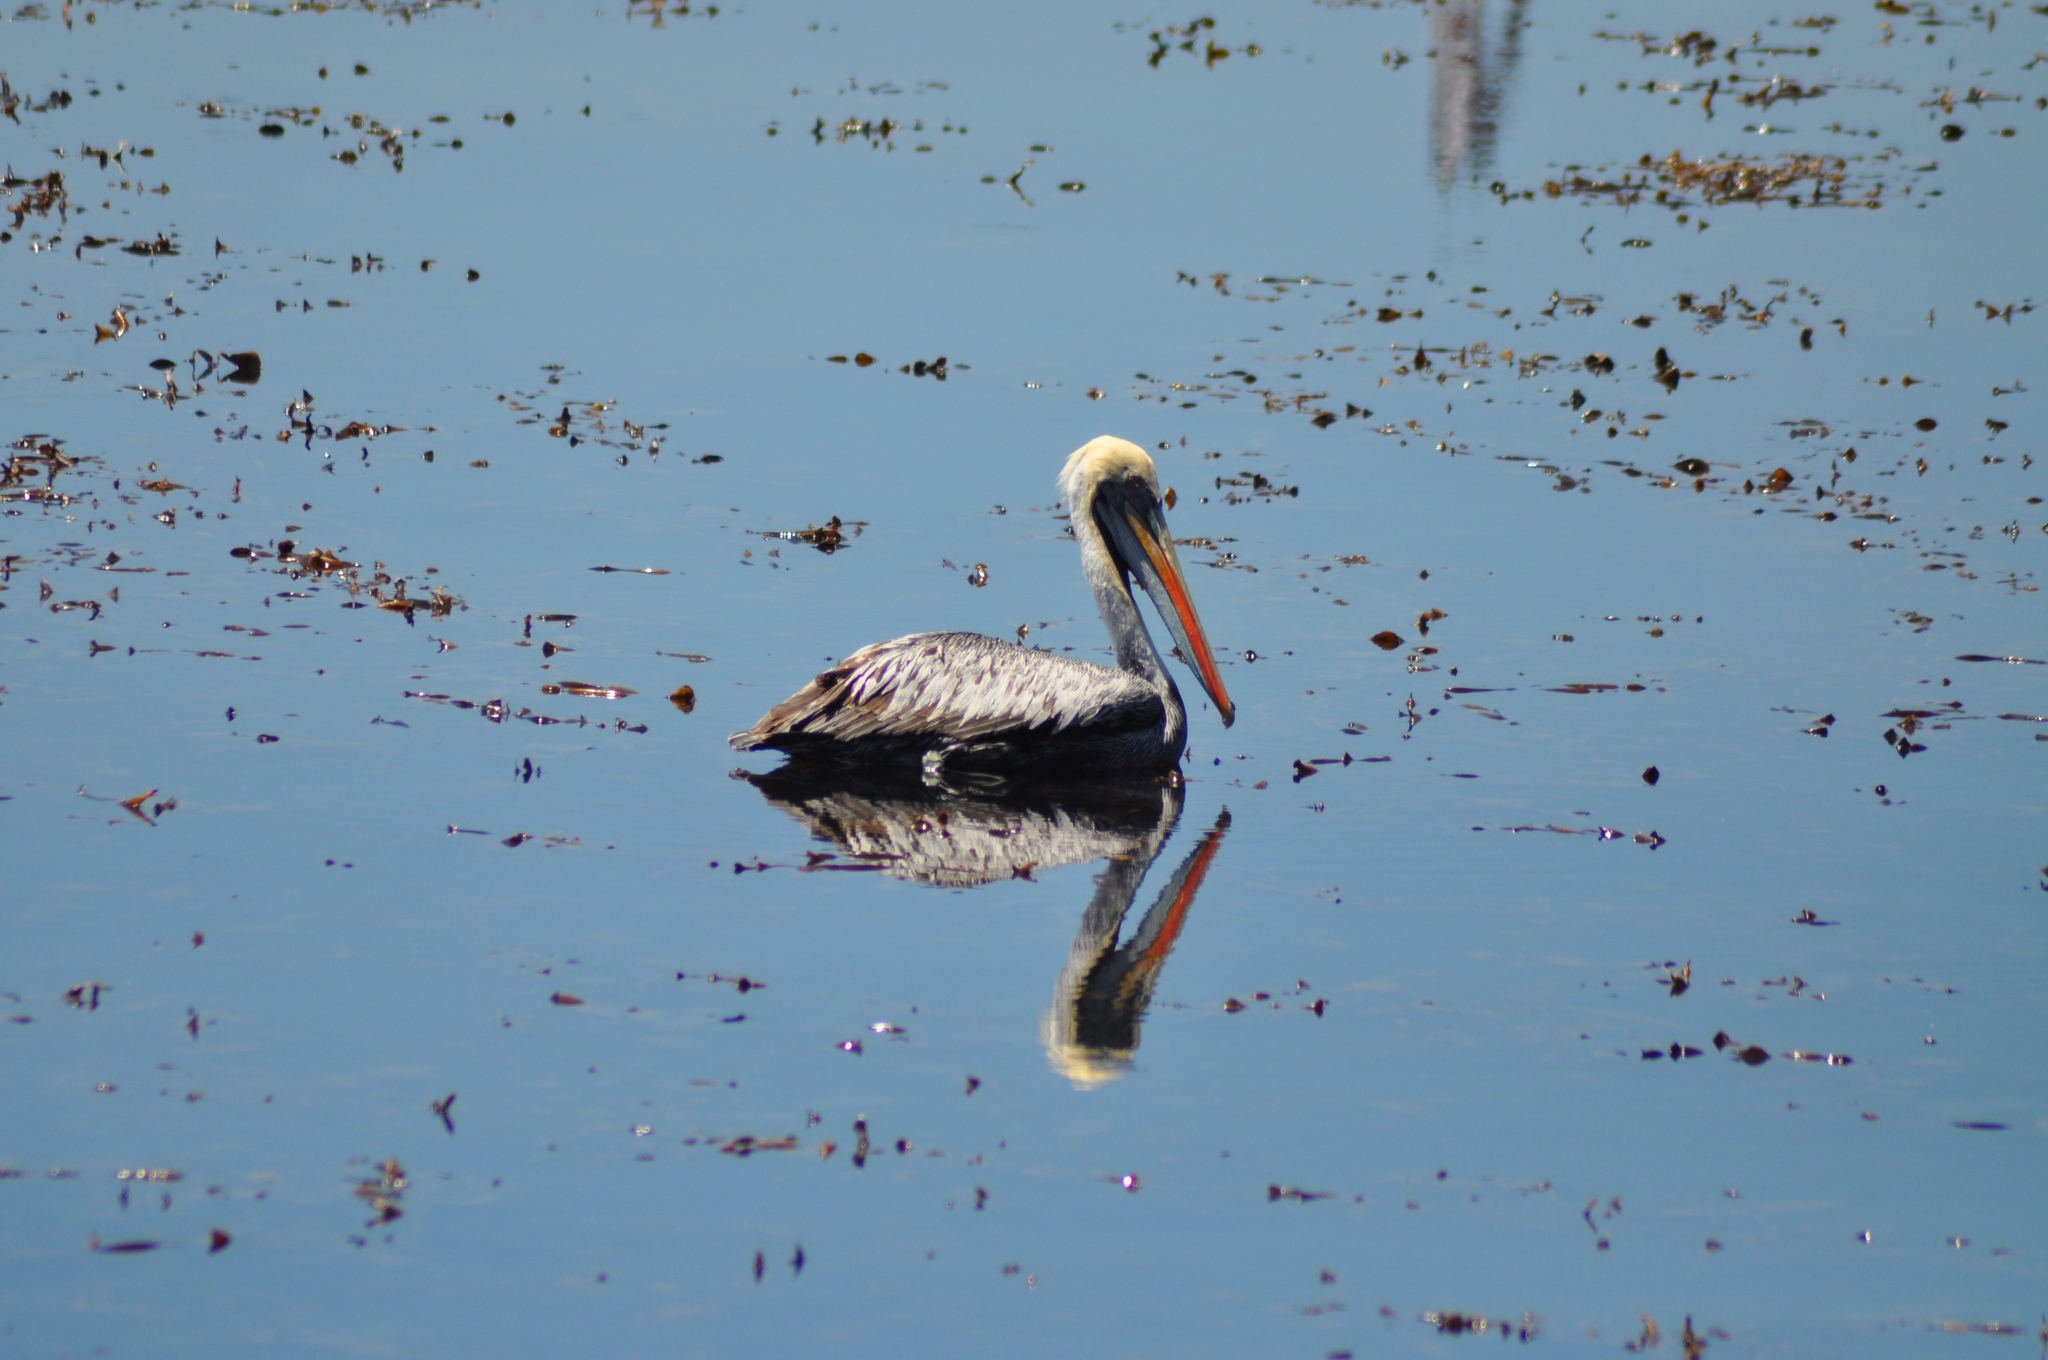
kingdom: Animalia
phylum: Chordata
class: Aves
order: Pelecaniformes
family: Pelecanidae
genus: Pelecanus
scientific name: Pelecanus thagus
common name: Peruvian pelican
